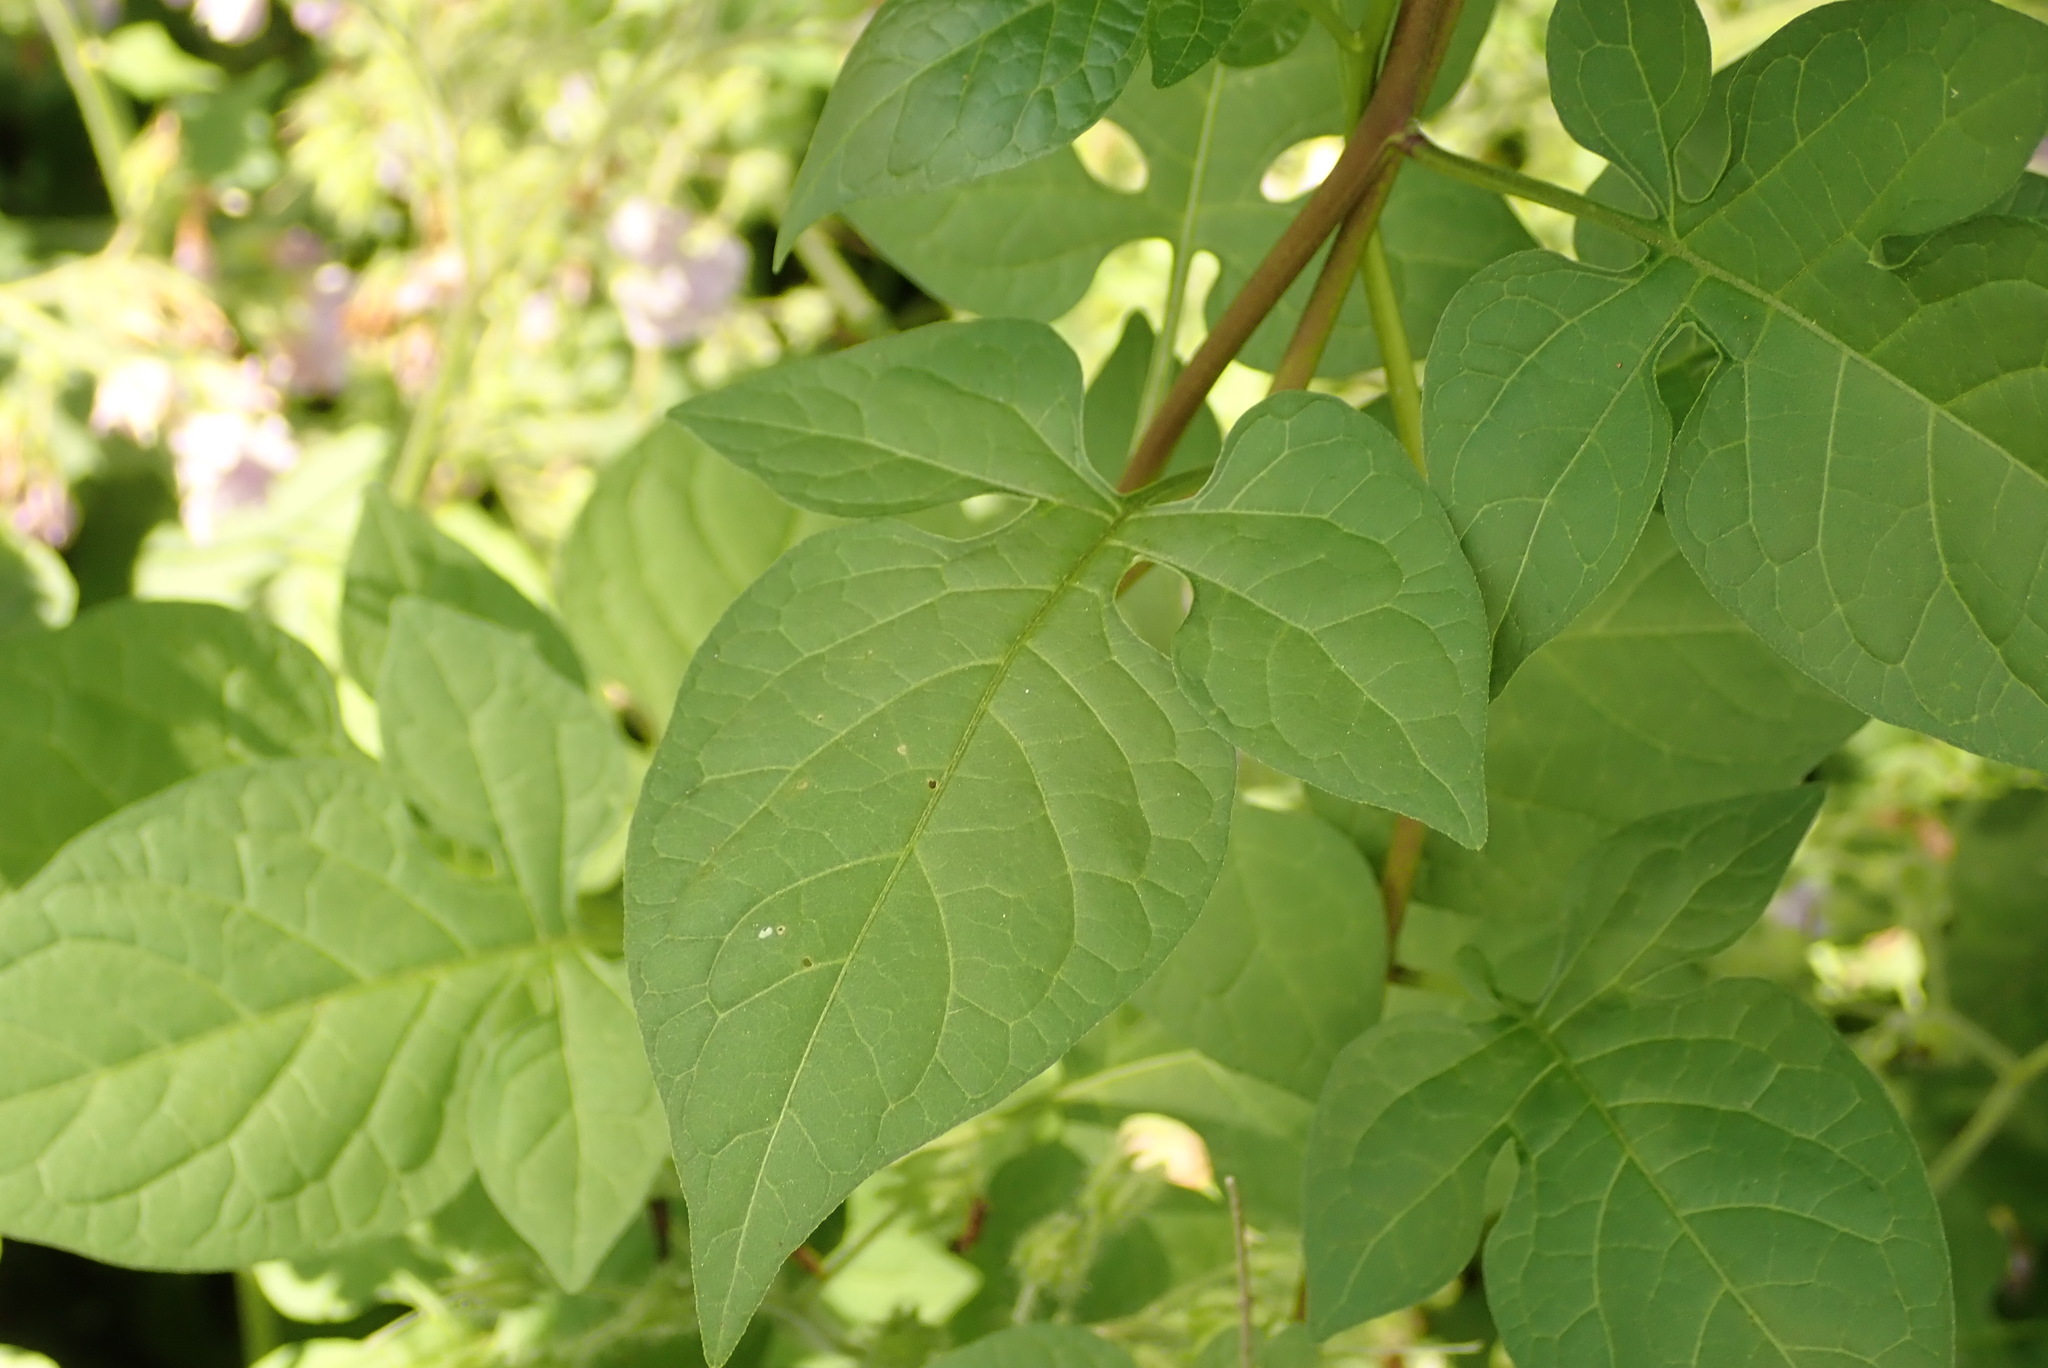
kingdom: Plantae
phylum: Tracheophyta
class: Magnoliopsida
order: Solanales
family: Solanaceae
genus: Solanum
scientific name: Solanum dulcamara
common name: Climbing nightshade
